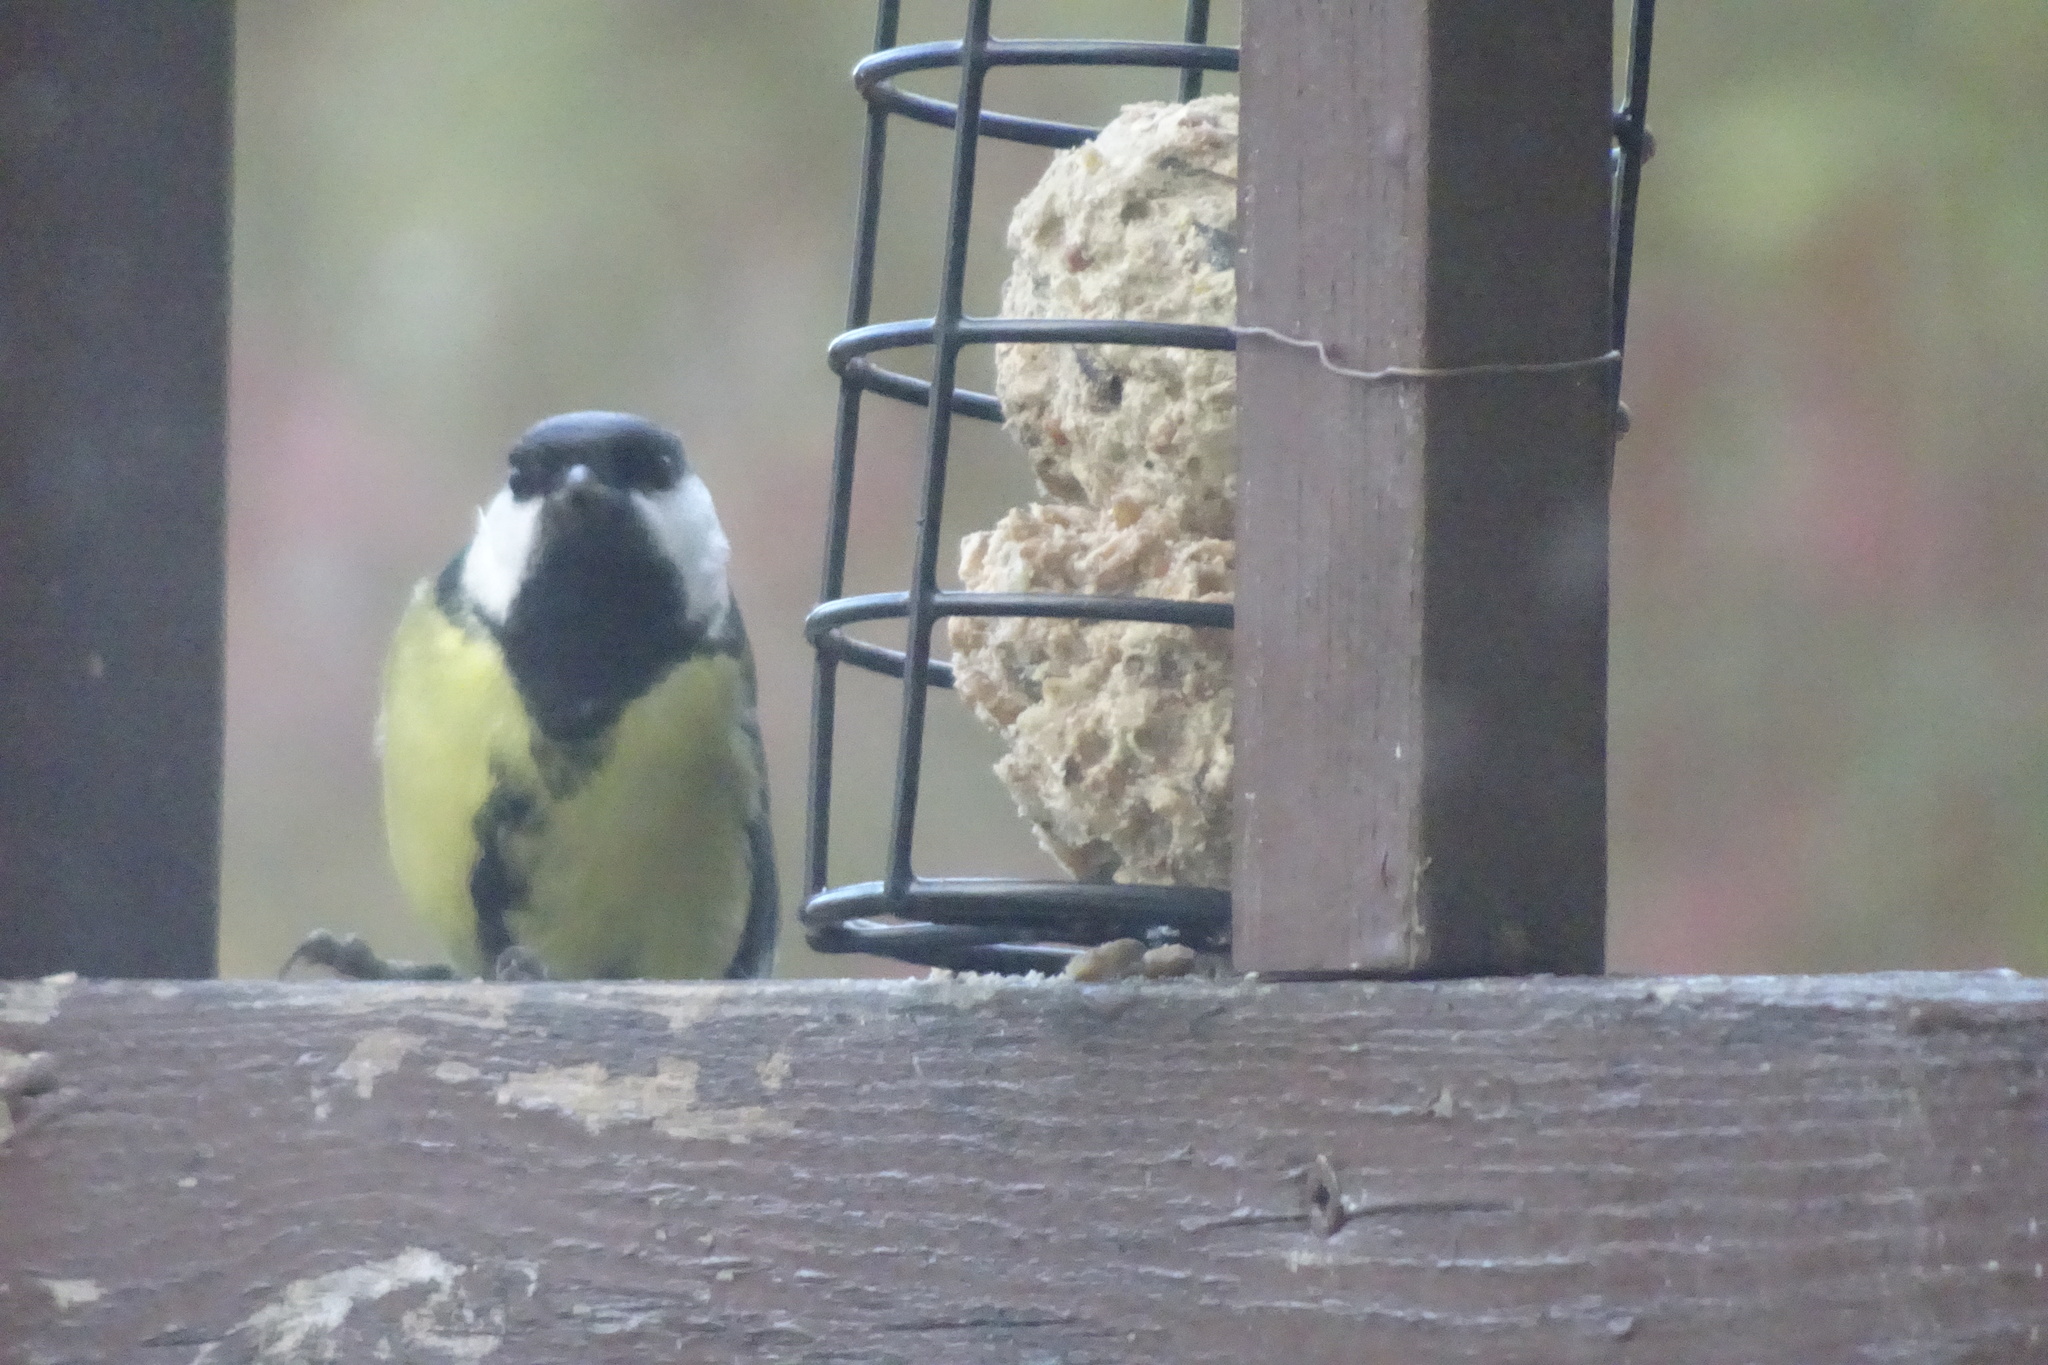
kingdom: Animalia
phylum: Chordata
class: Aves
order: Passeriformes
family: Paridae
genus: Parus
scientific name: Parus major
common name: Great tit
